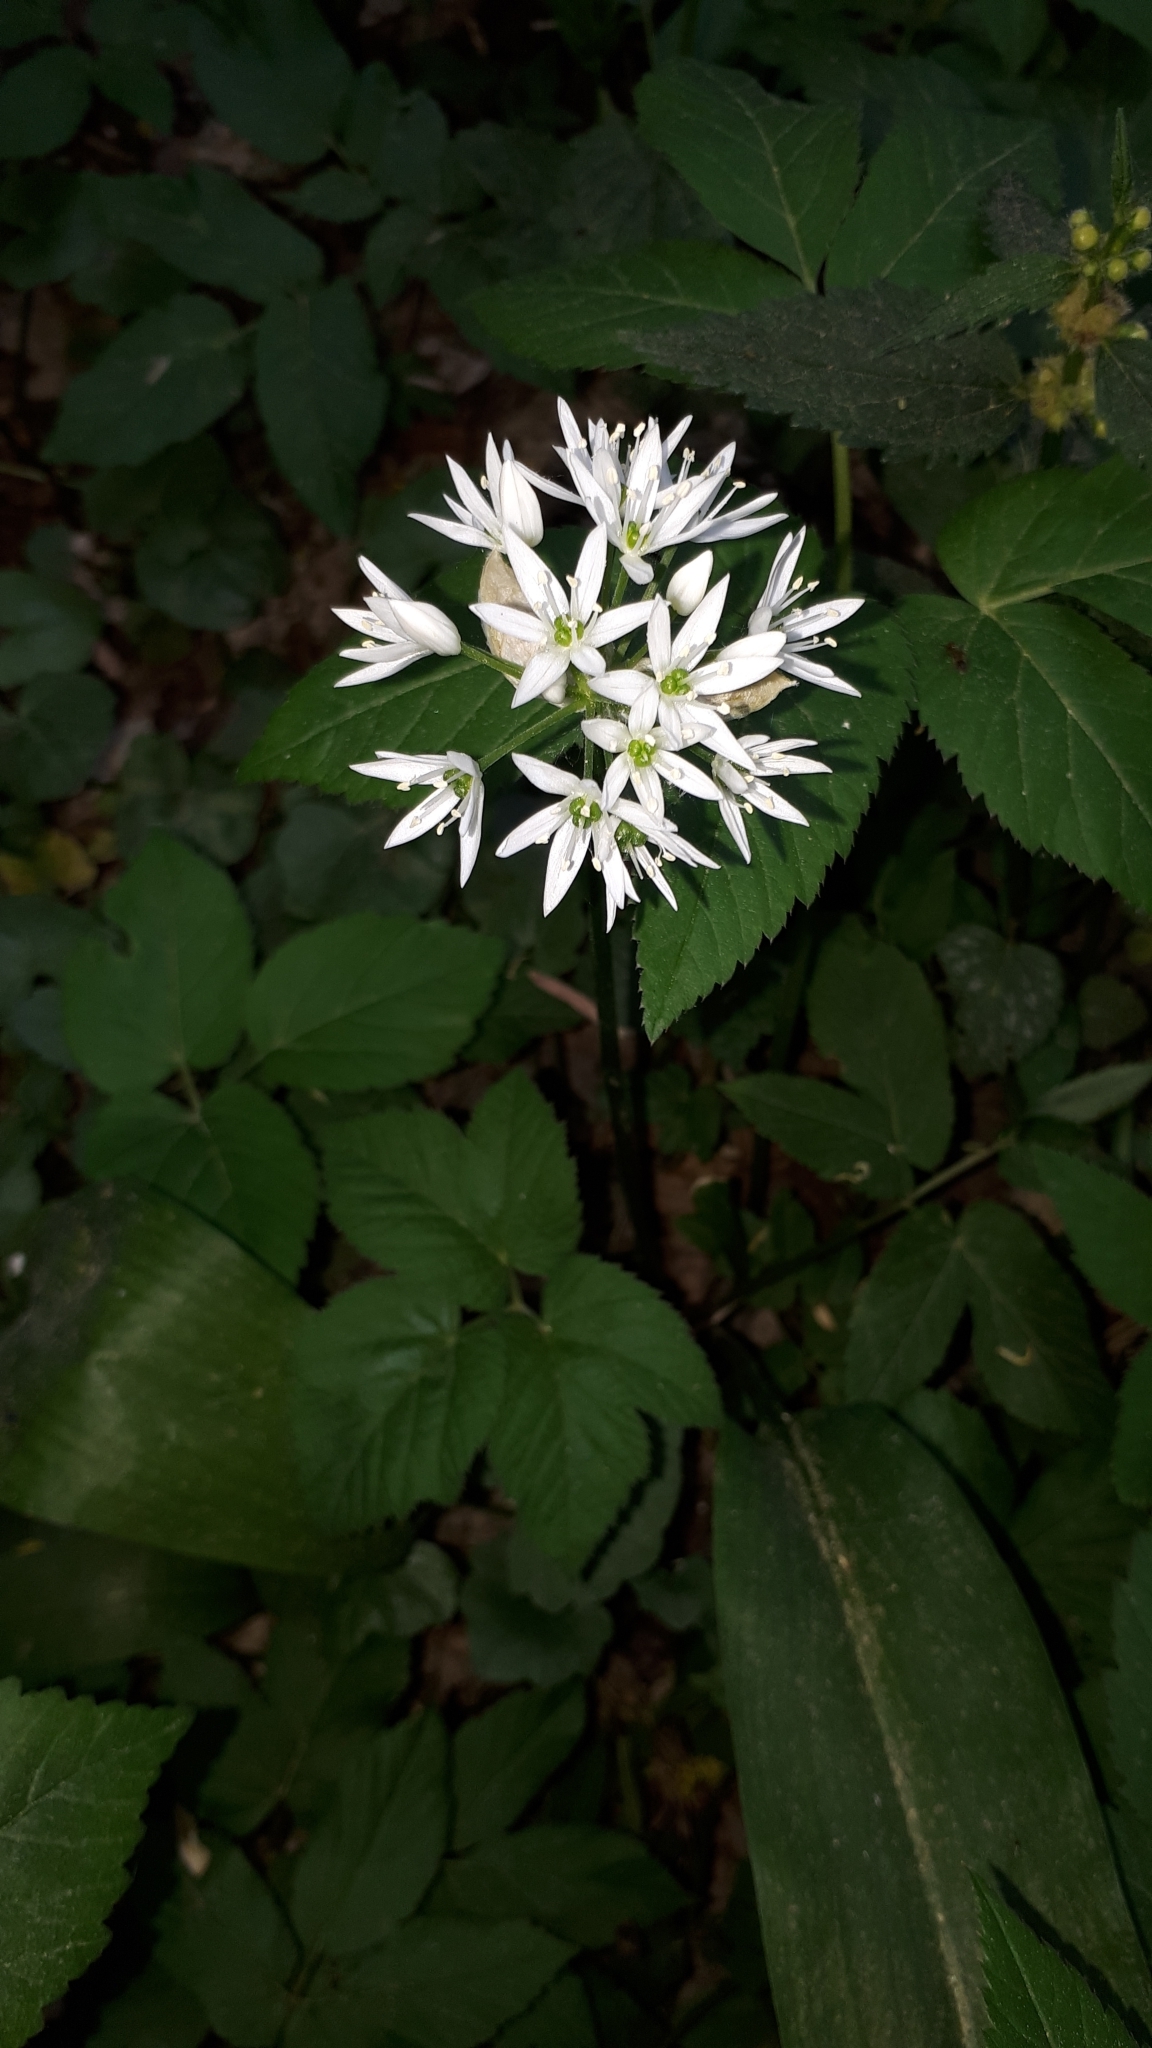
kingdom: Plantae
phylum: Tracheophyta
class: Liliopsida
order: Asparagales
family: Amaryllidaceae
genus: Allium
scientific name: Allium ursinum
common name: Ramsons
